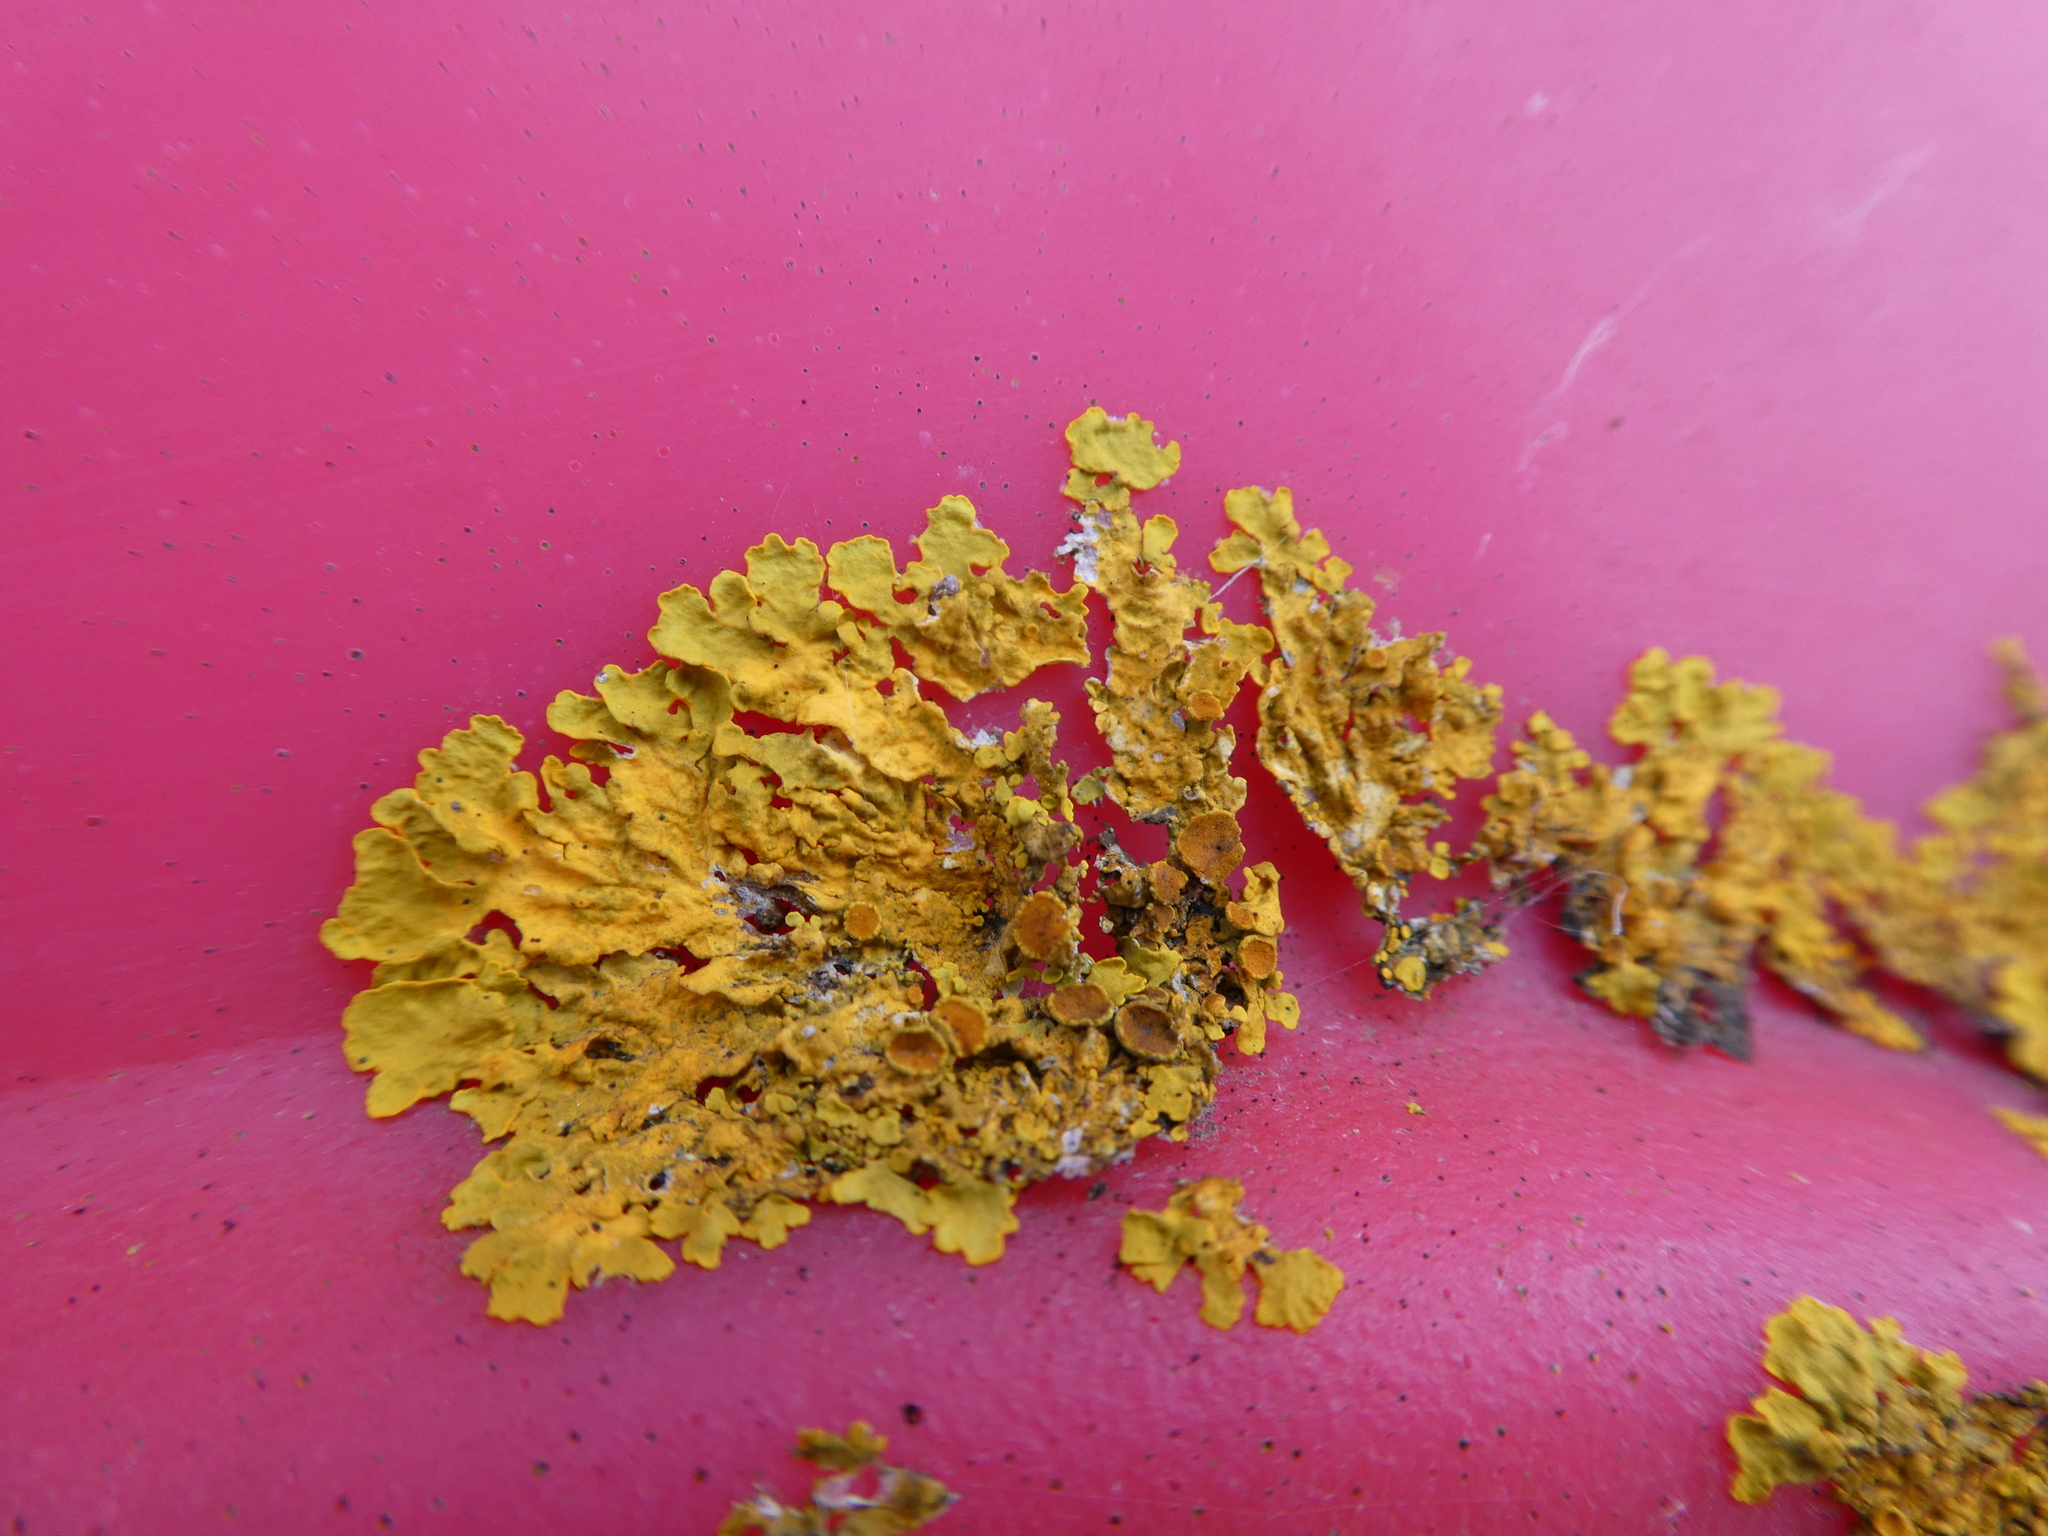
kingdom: Fungi
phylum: Ascomycota
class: Lecanoromycetes
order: Teloschistales
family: Teloschistaceae
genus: Xanthoria
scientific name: Xanthoria parietina
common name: Common orange lichen
